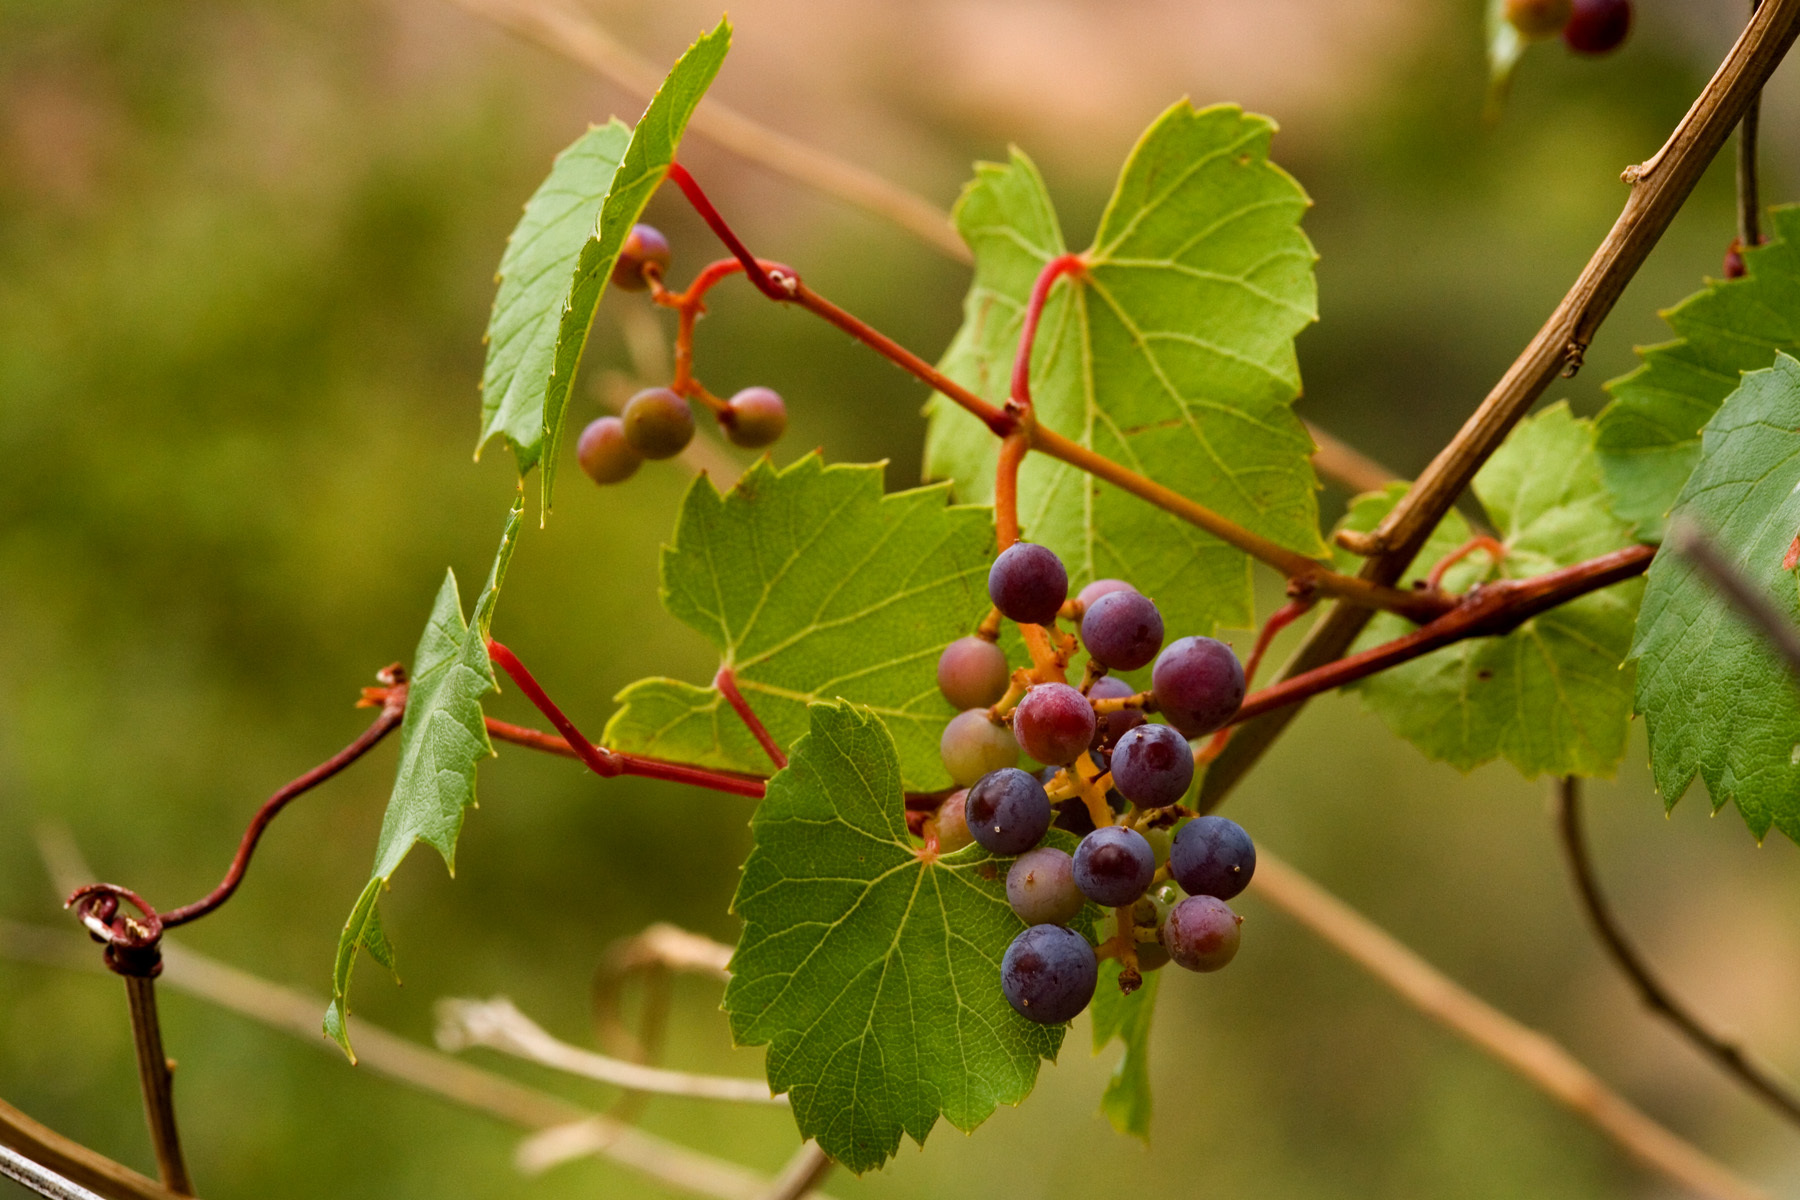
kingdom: Plantae
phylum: Tracheophyta
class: Magnoliopsida
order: Vitales
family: Vitaceae
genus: Vitis
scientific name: Vitis arizonica
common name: Canyon grape
